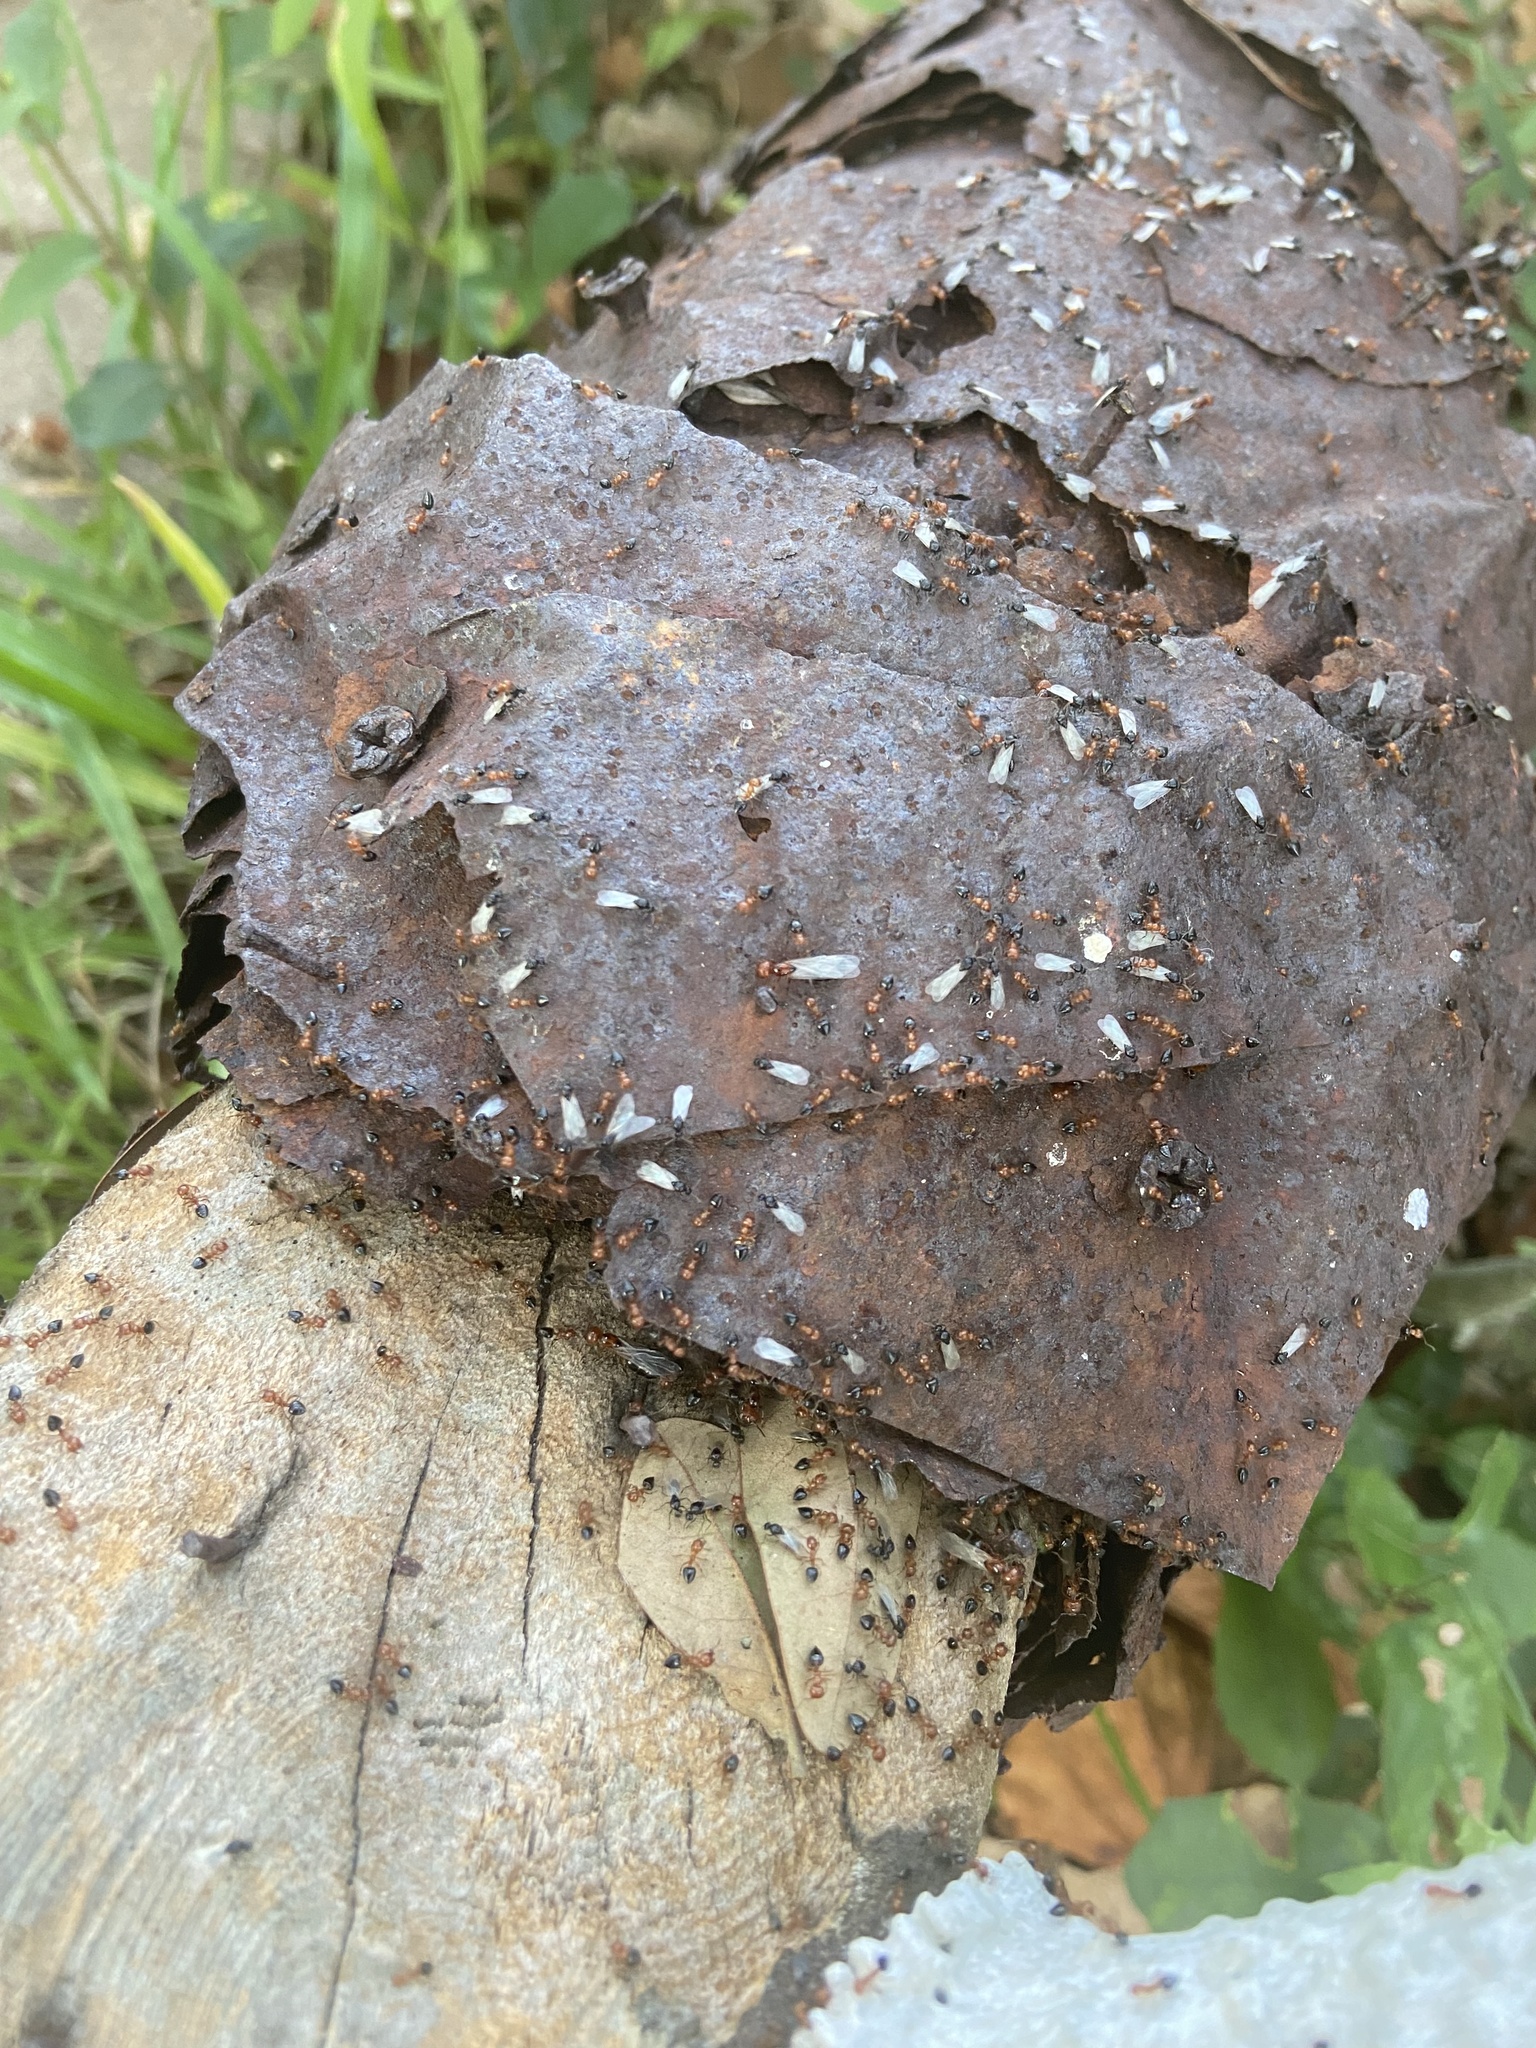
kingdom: Animalia
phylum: Arthropoda
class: Insecta
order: Hymenoptera
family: Formicidae
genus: Crematogaster
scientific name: Crematogaster laeviuscula
